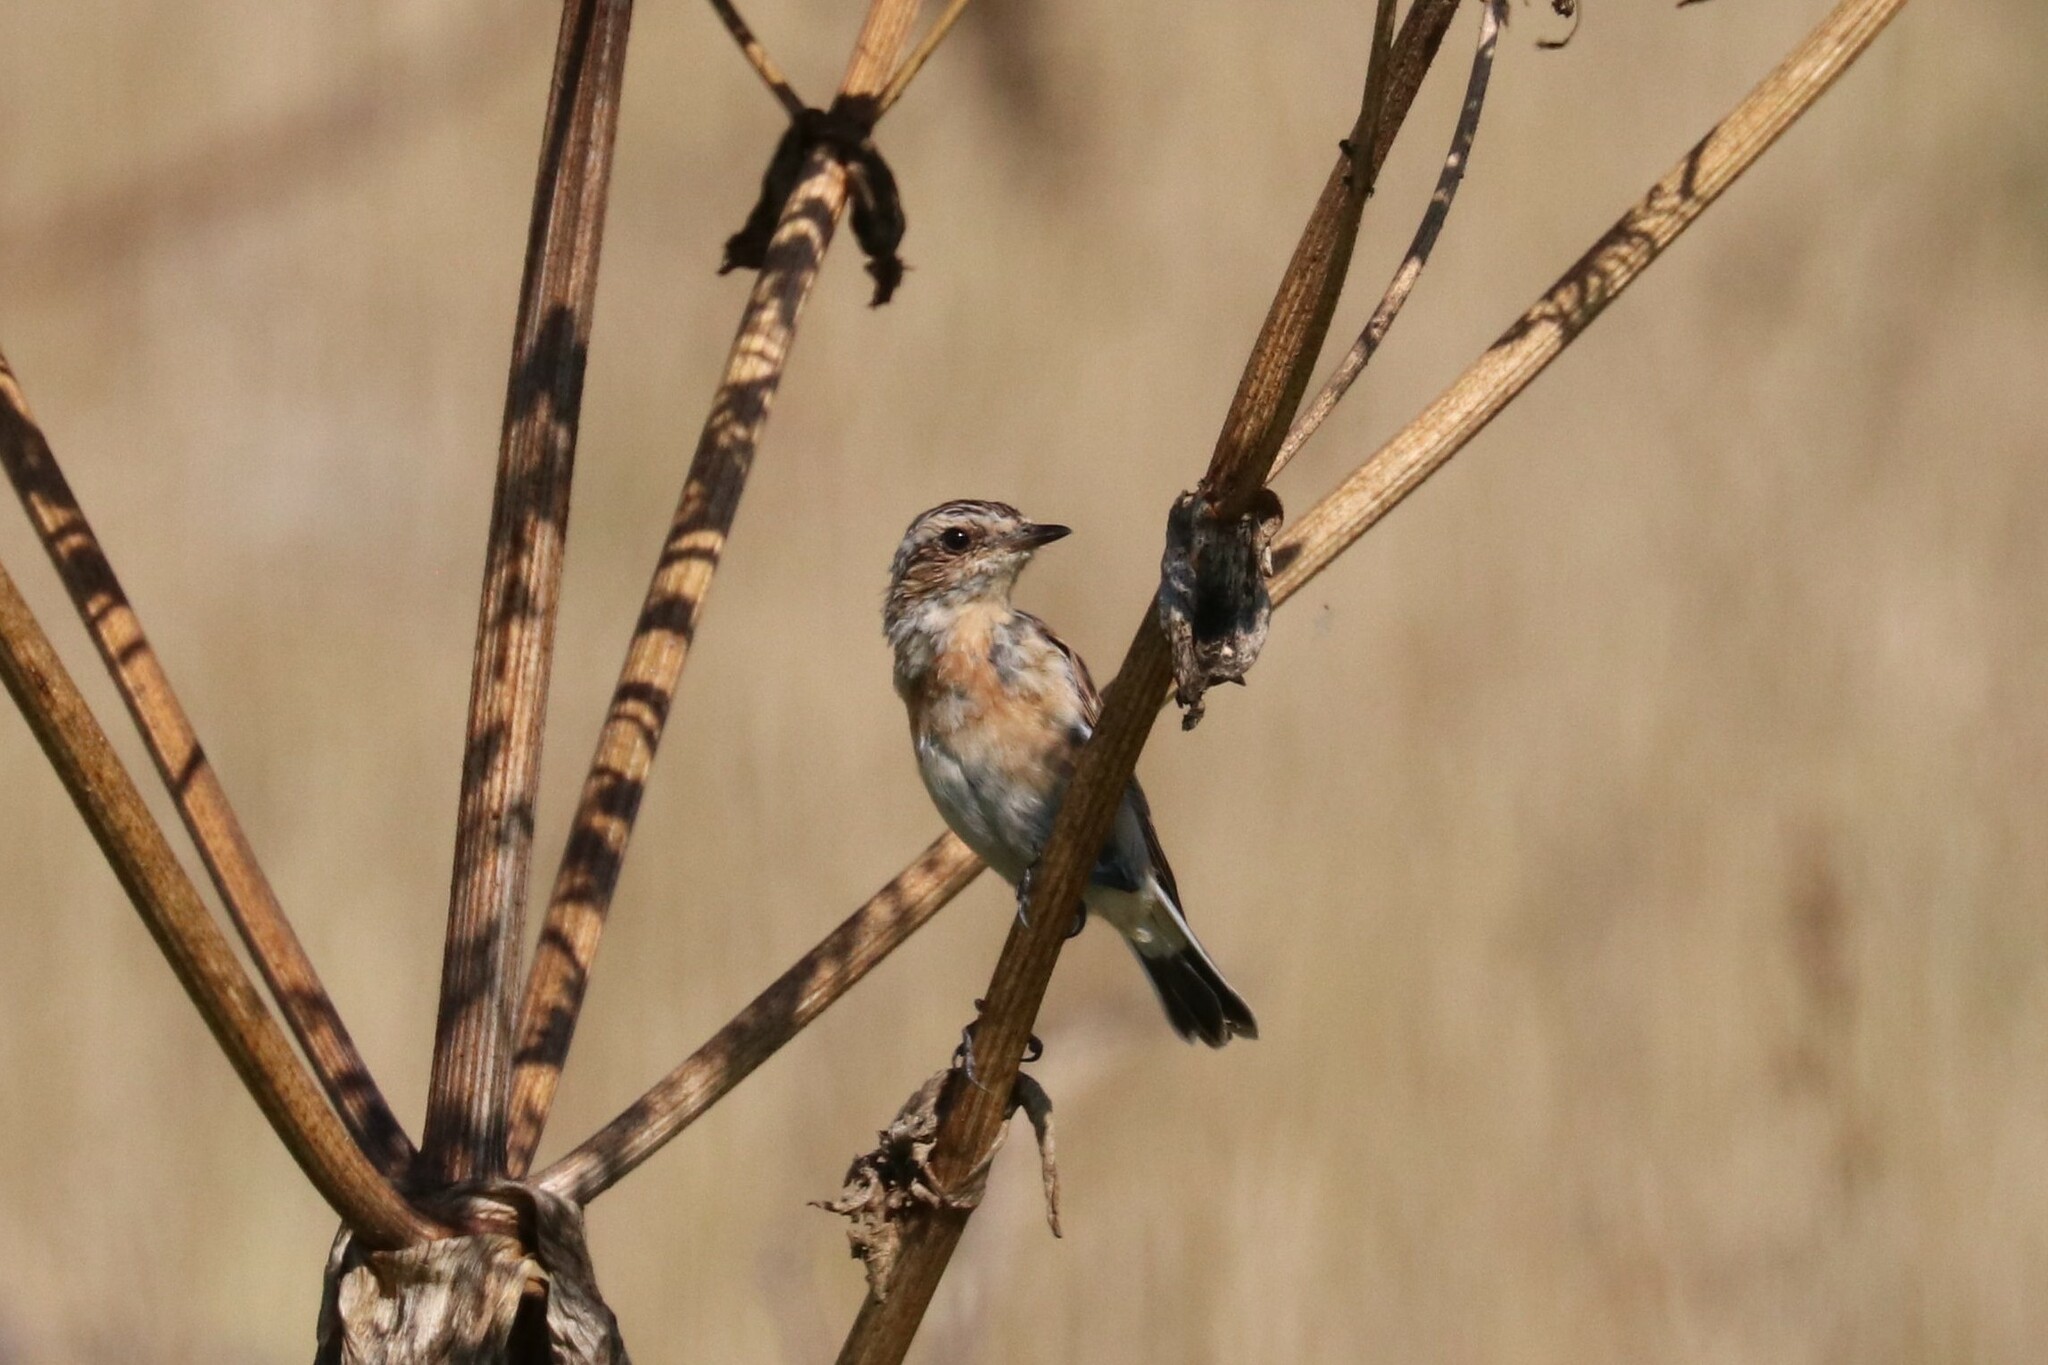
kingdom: Animalia
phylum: Chordata
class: Aves
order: Passeriformes
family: Muscicapidae
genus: Saxicola
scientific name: Saxicola maurus
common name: Siberian stonechat
